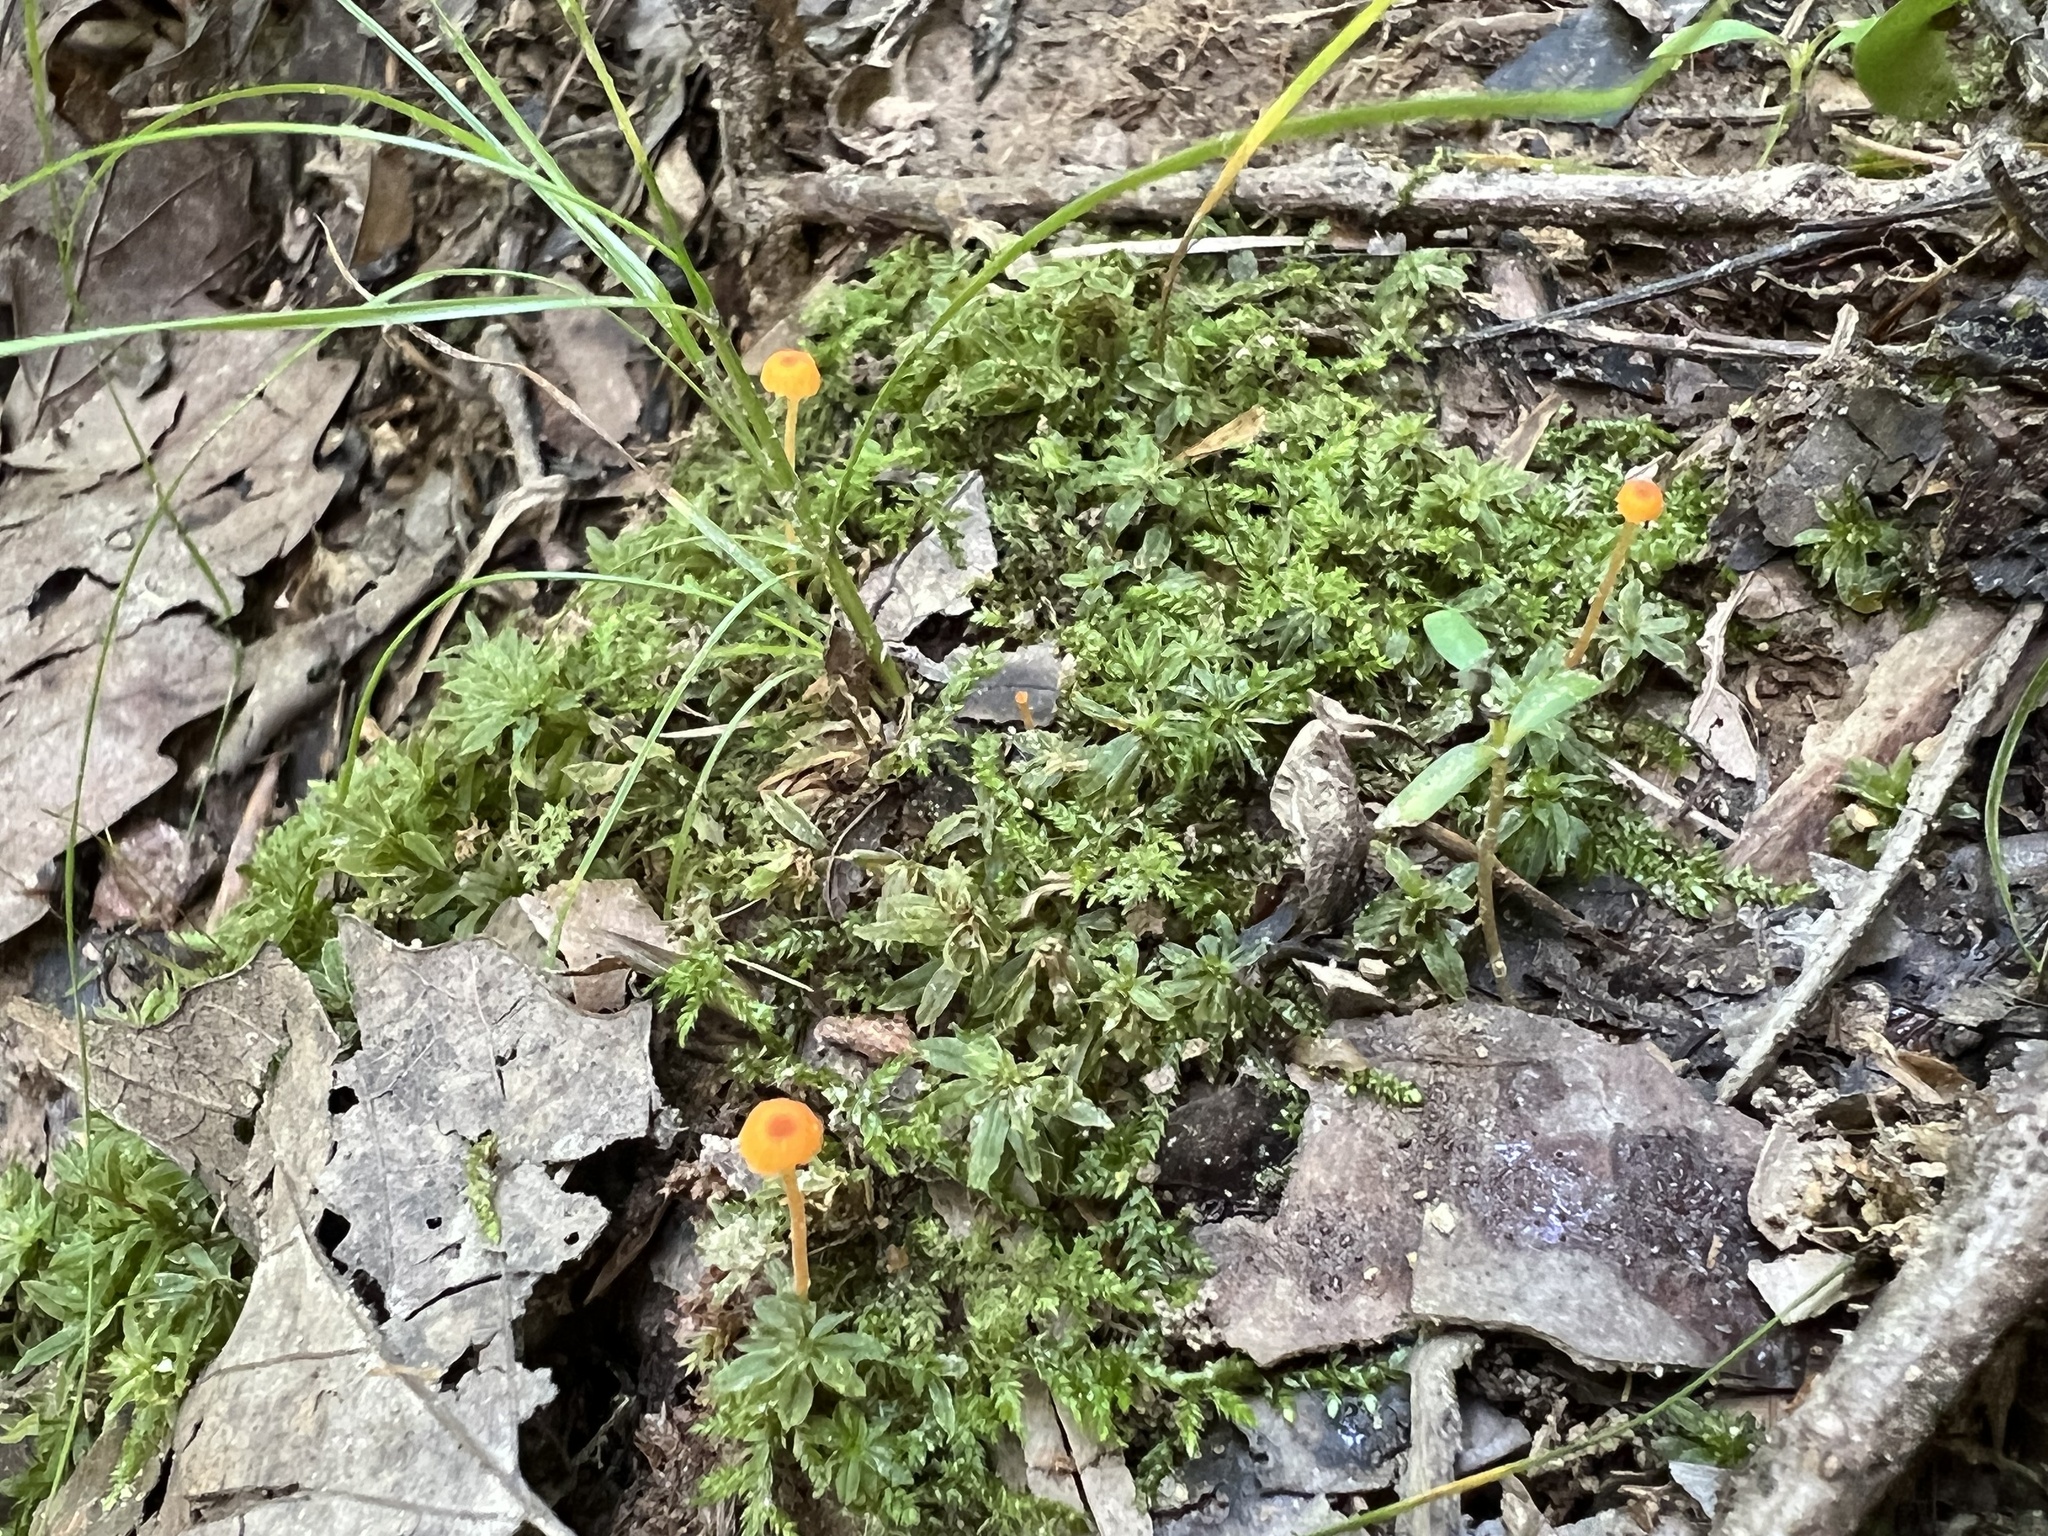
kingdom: Fungi
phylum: Basidiomycota
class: Agaricomycetes
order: Hymenochaetales
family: Rickenellaceae
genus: Rickenella
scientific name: Rickenella fibula
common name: Orange mosscap
